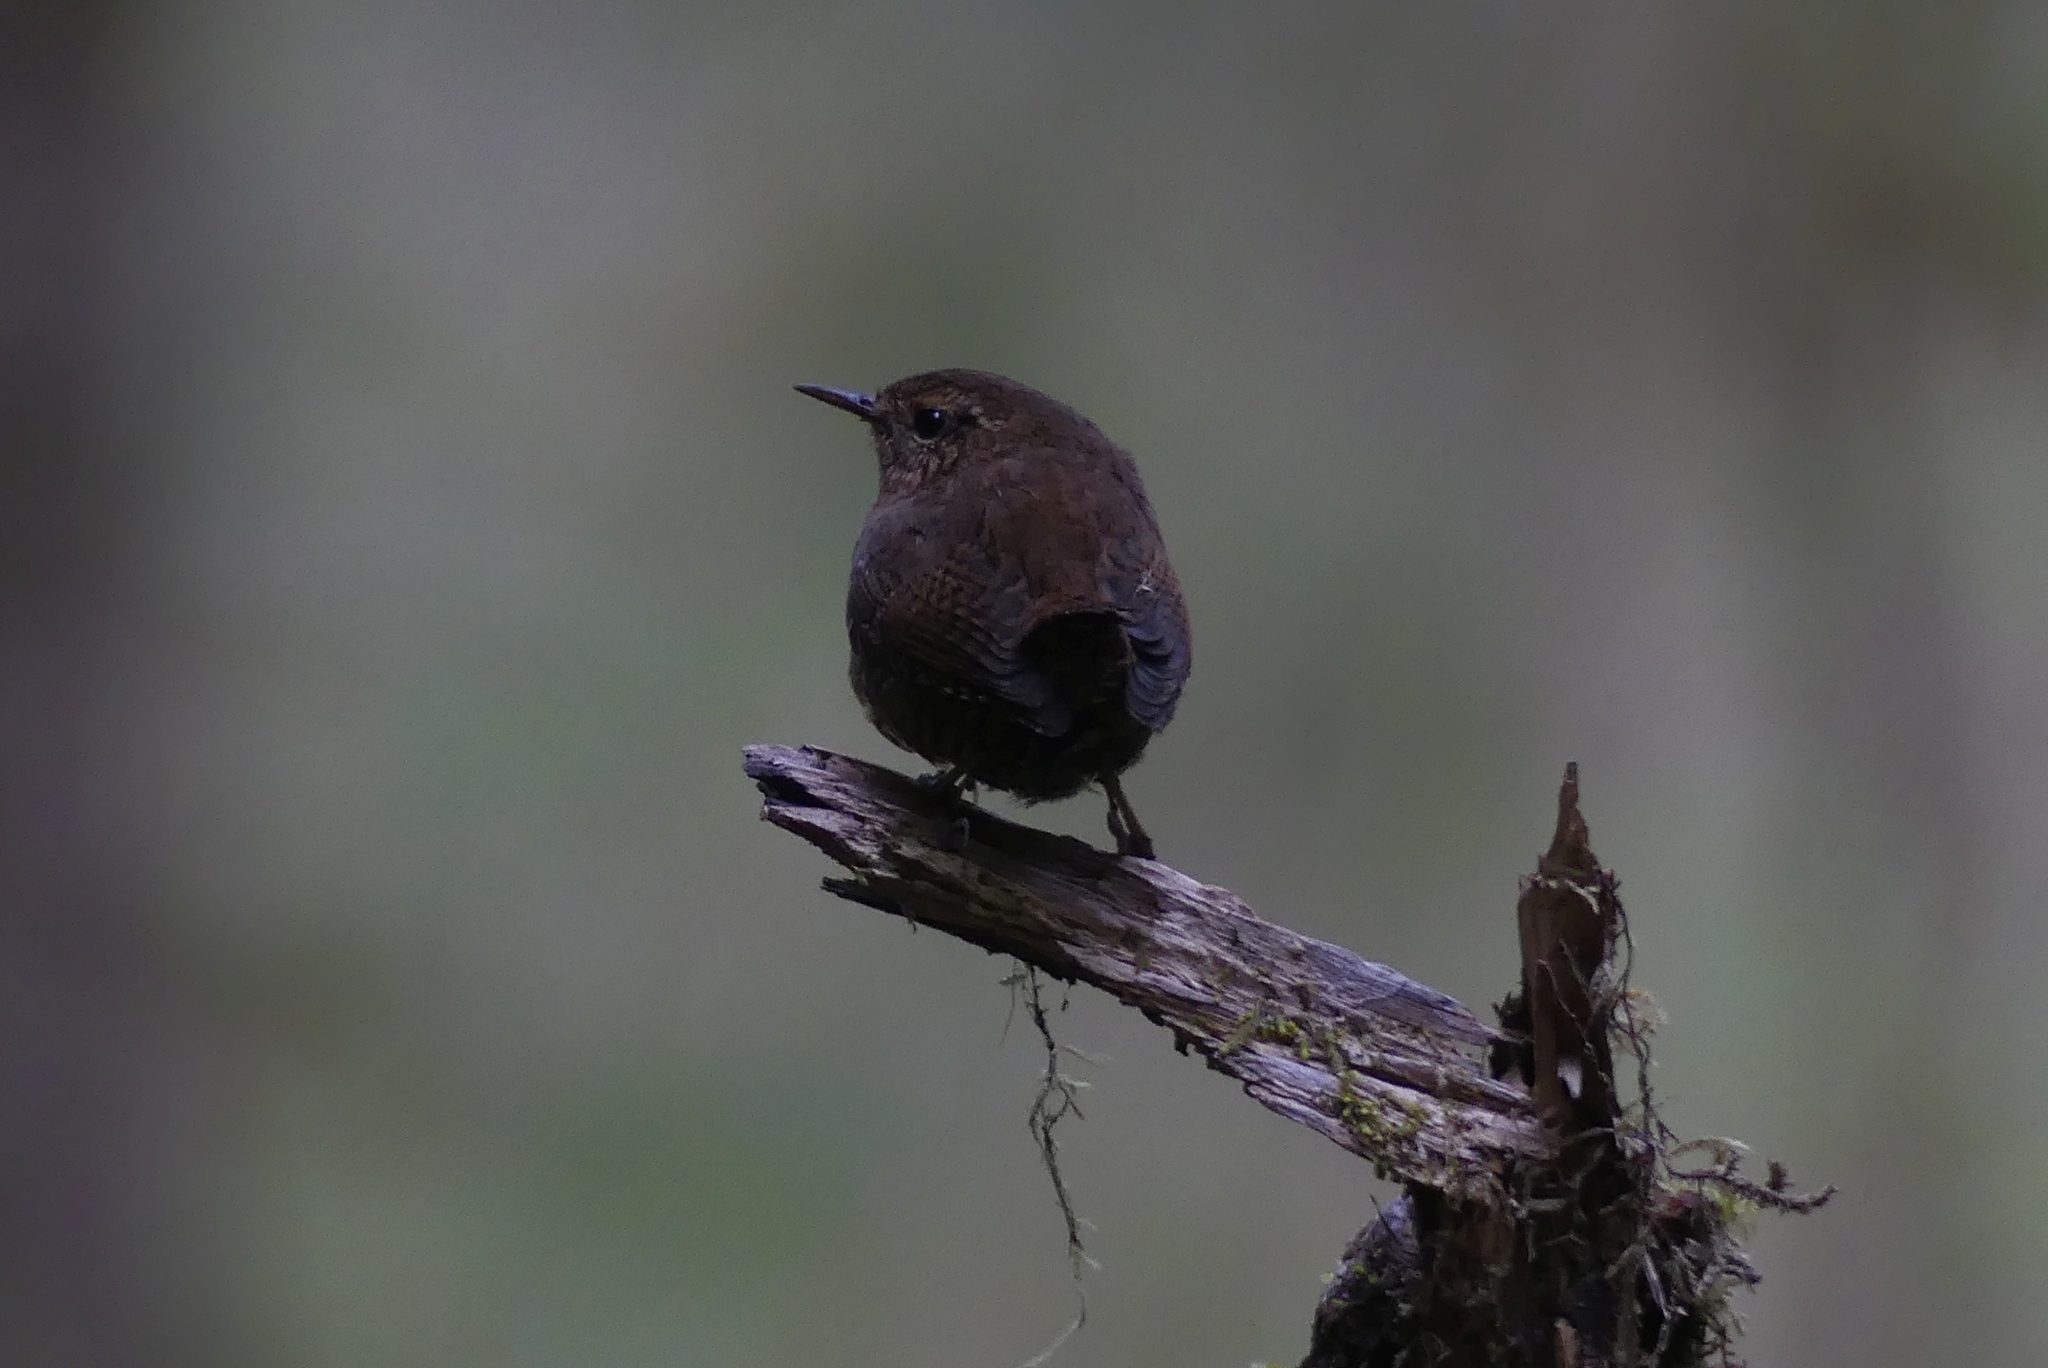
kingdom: Animalia
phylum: Chordata
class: Aves
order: Passeriformes
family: Troglodytidae
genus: Troglodytes
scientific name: Troglodytes pacificus
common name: Pacific wren
